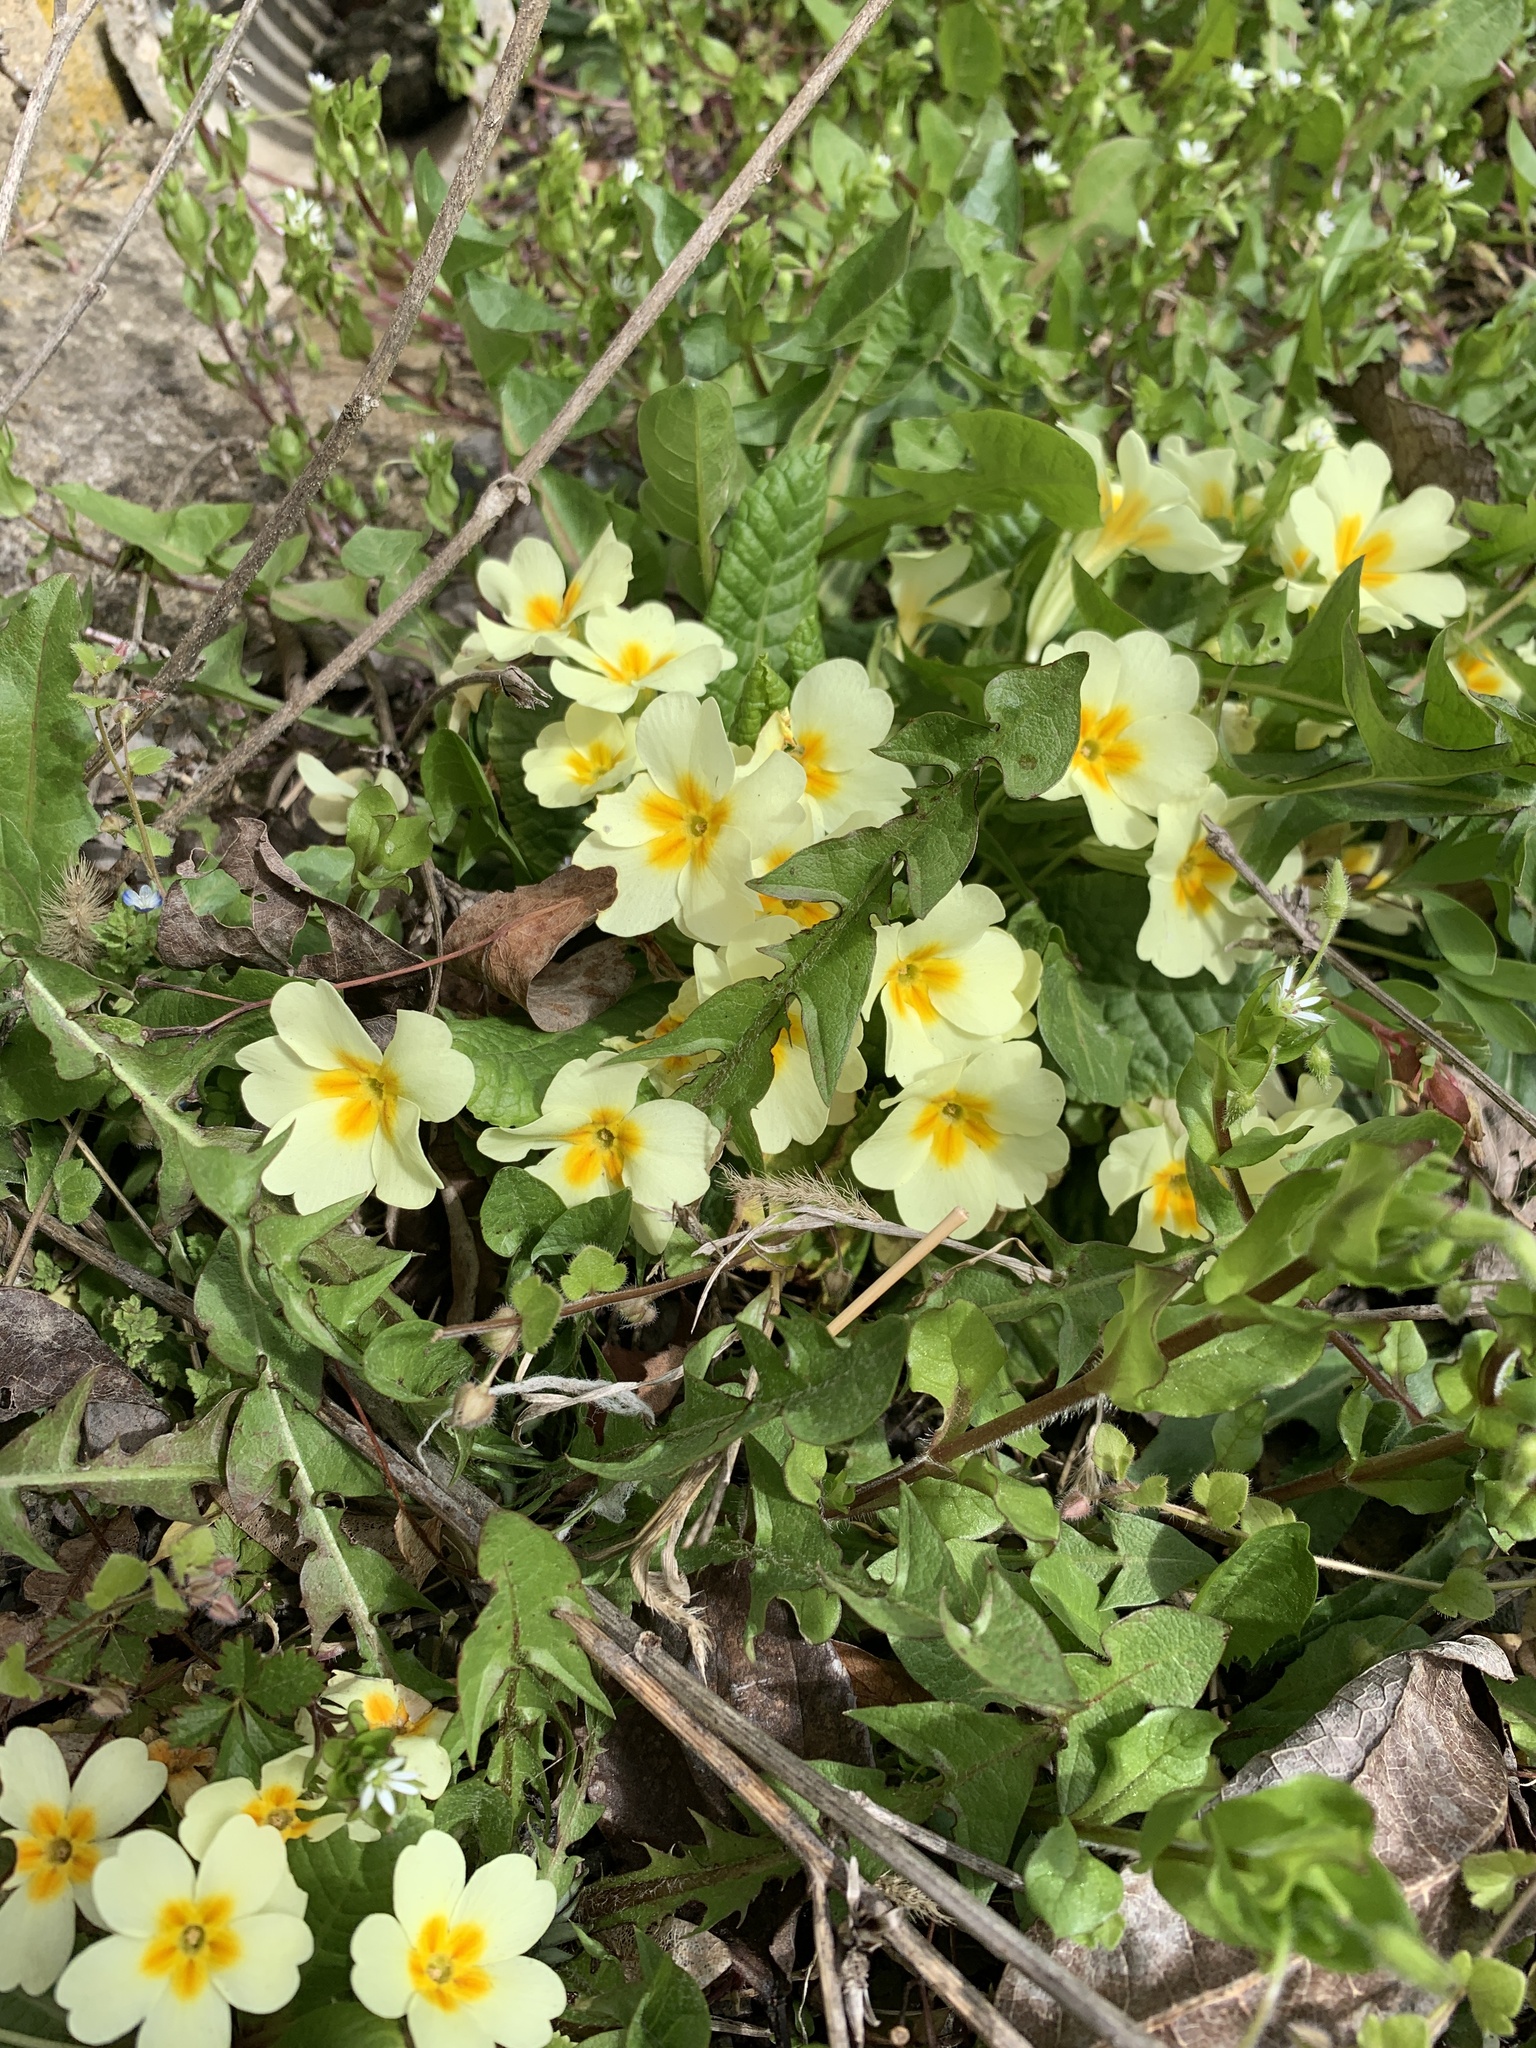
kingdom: Plantae
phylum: Tracheophyta
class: Magnoliopsida
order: Ericales
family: Primulaceae
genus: Primula
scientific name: Primula vulgaris
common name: Primrose
